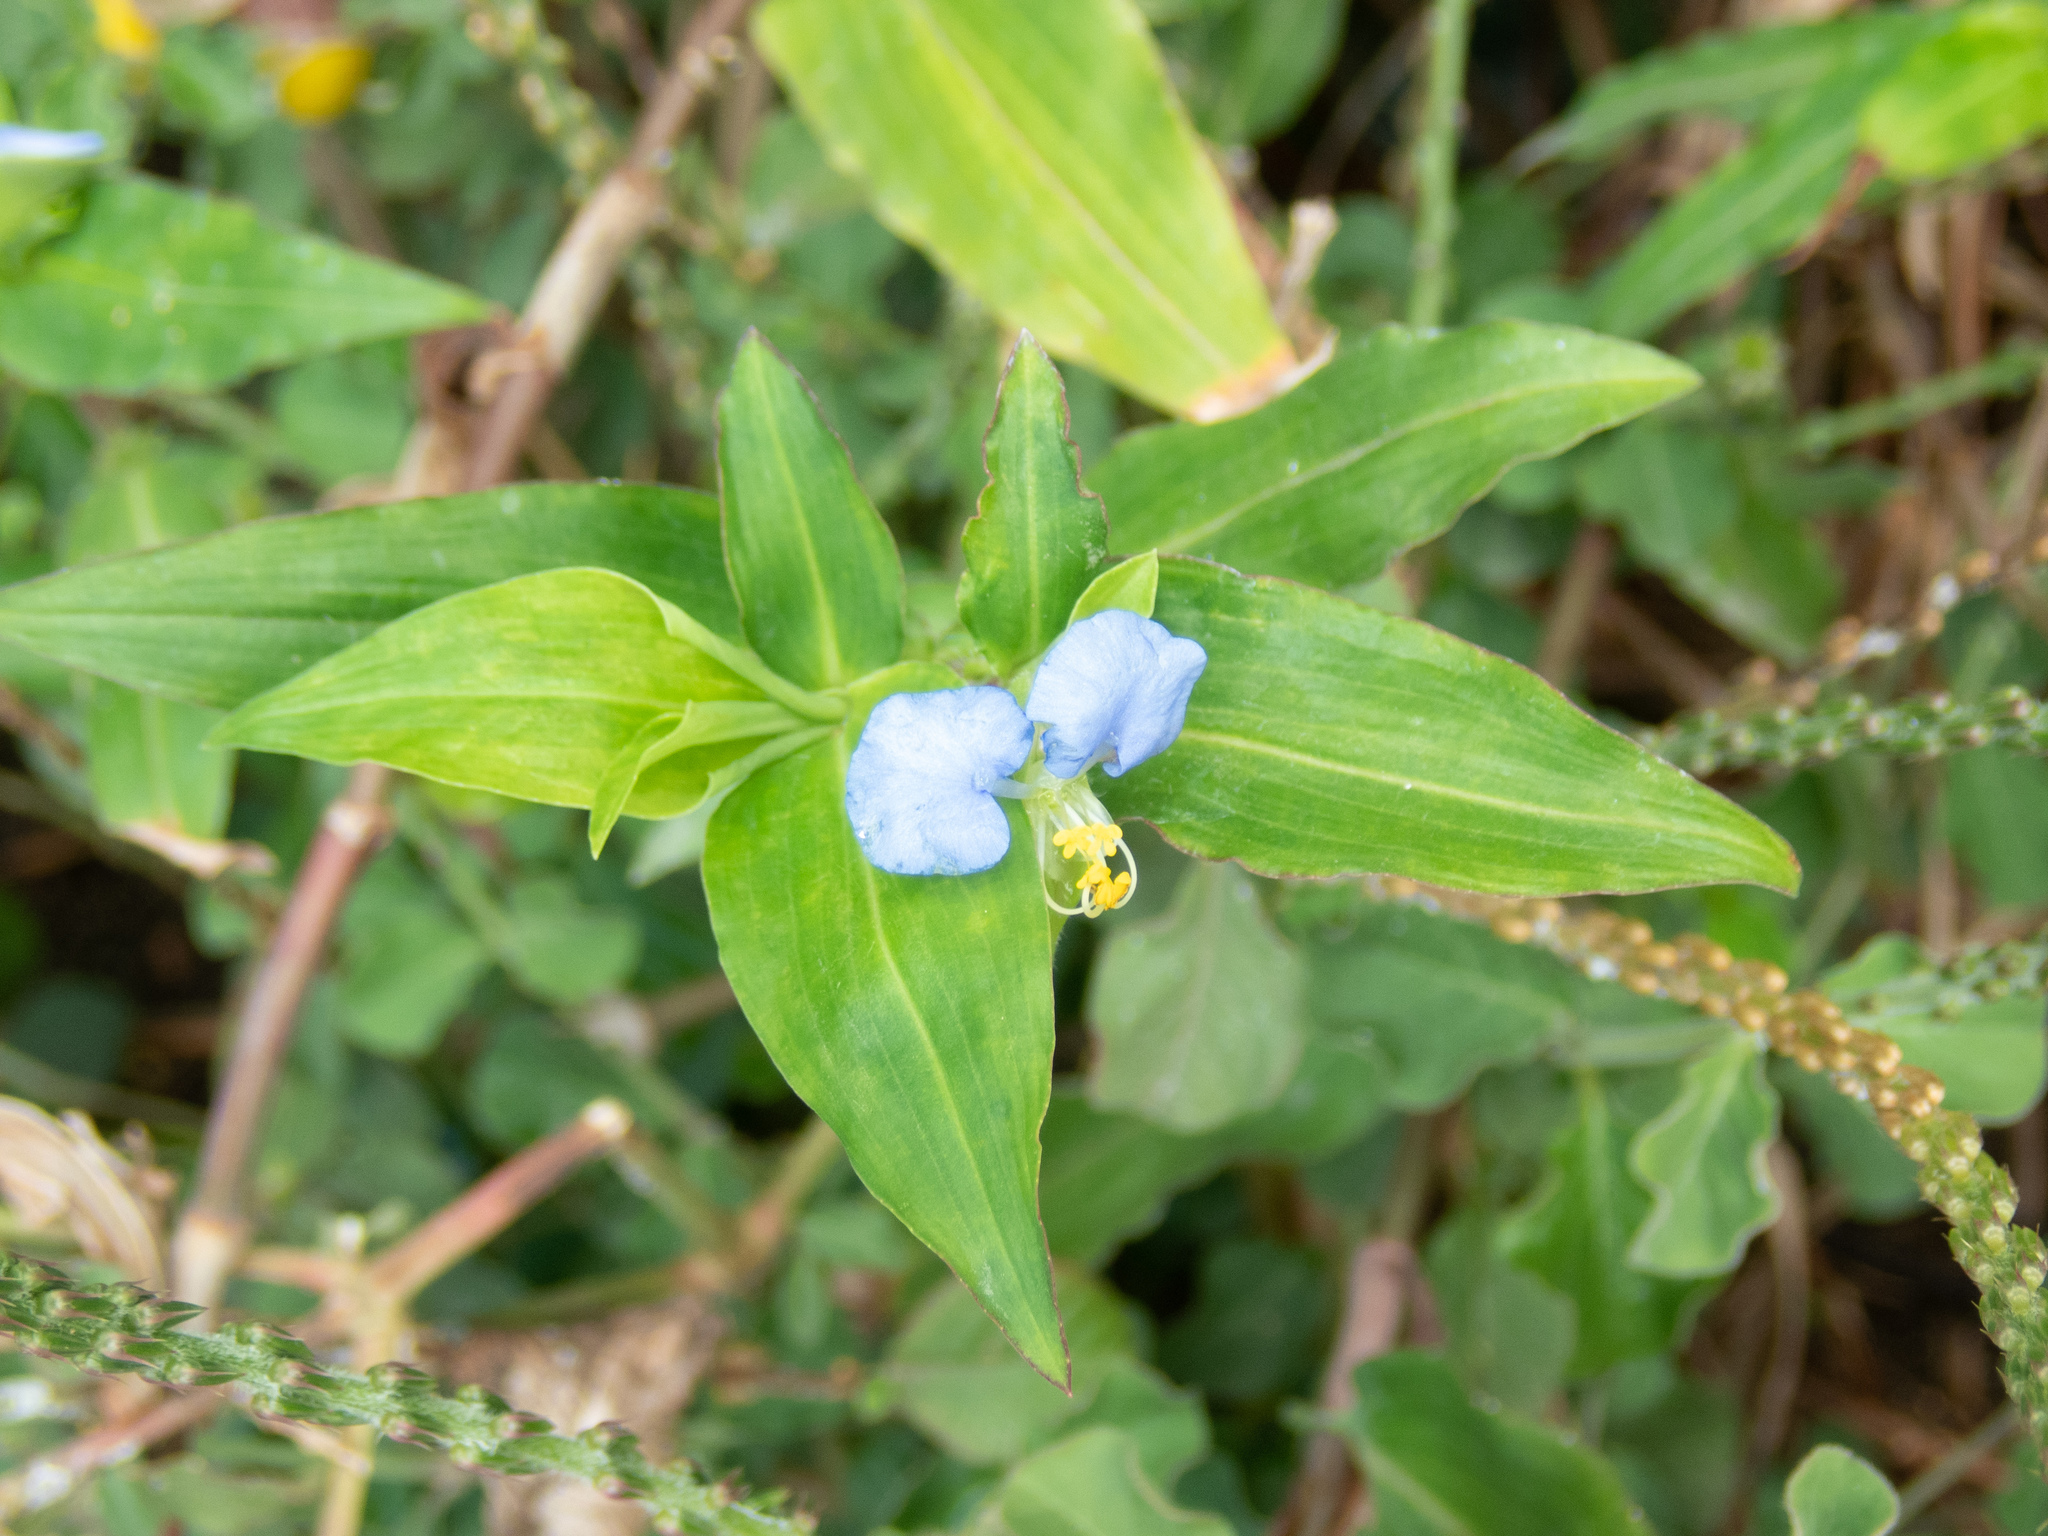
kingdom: Plantae
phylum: Tracheophyta
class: Liliopsida
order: Commelinales
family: Commelinaceae
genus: Commelina
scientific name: Commelina erecta
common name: Blousel blommetjie
